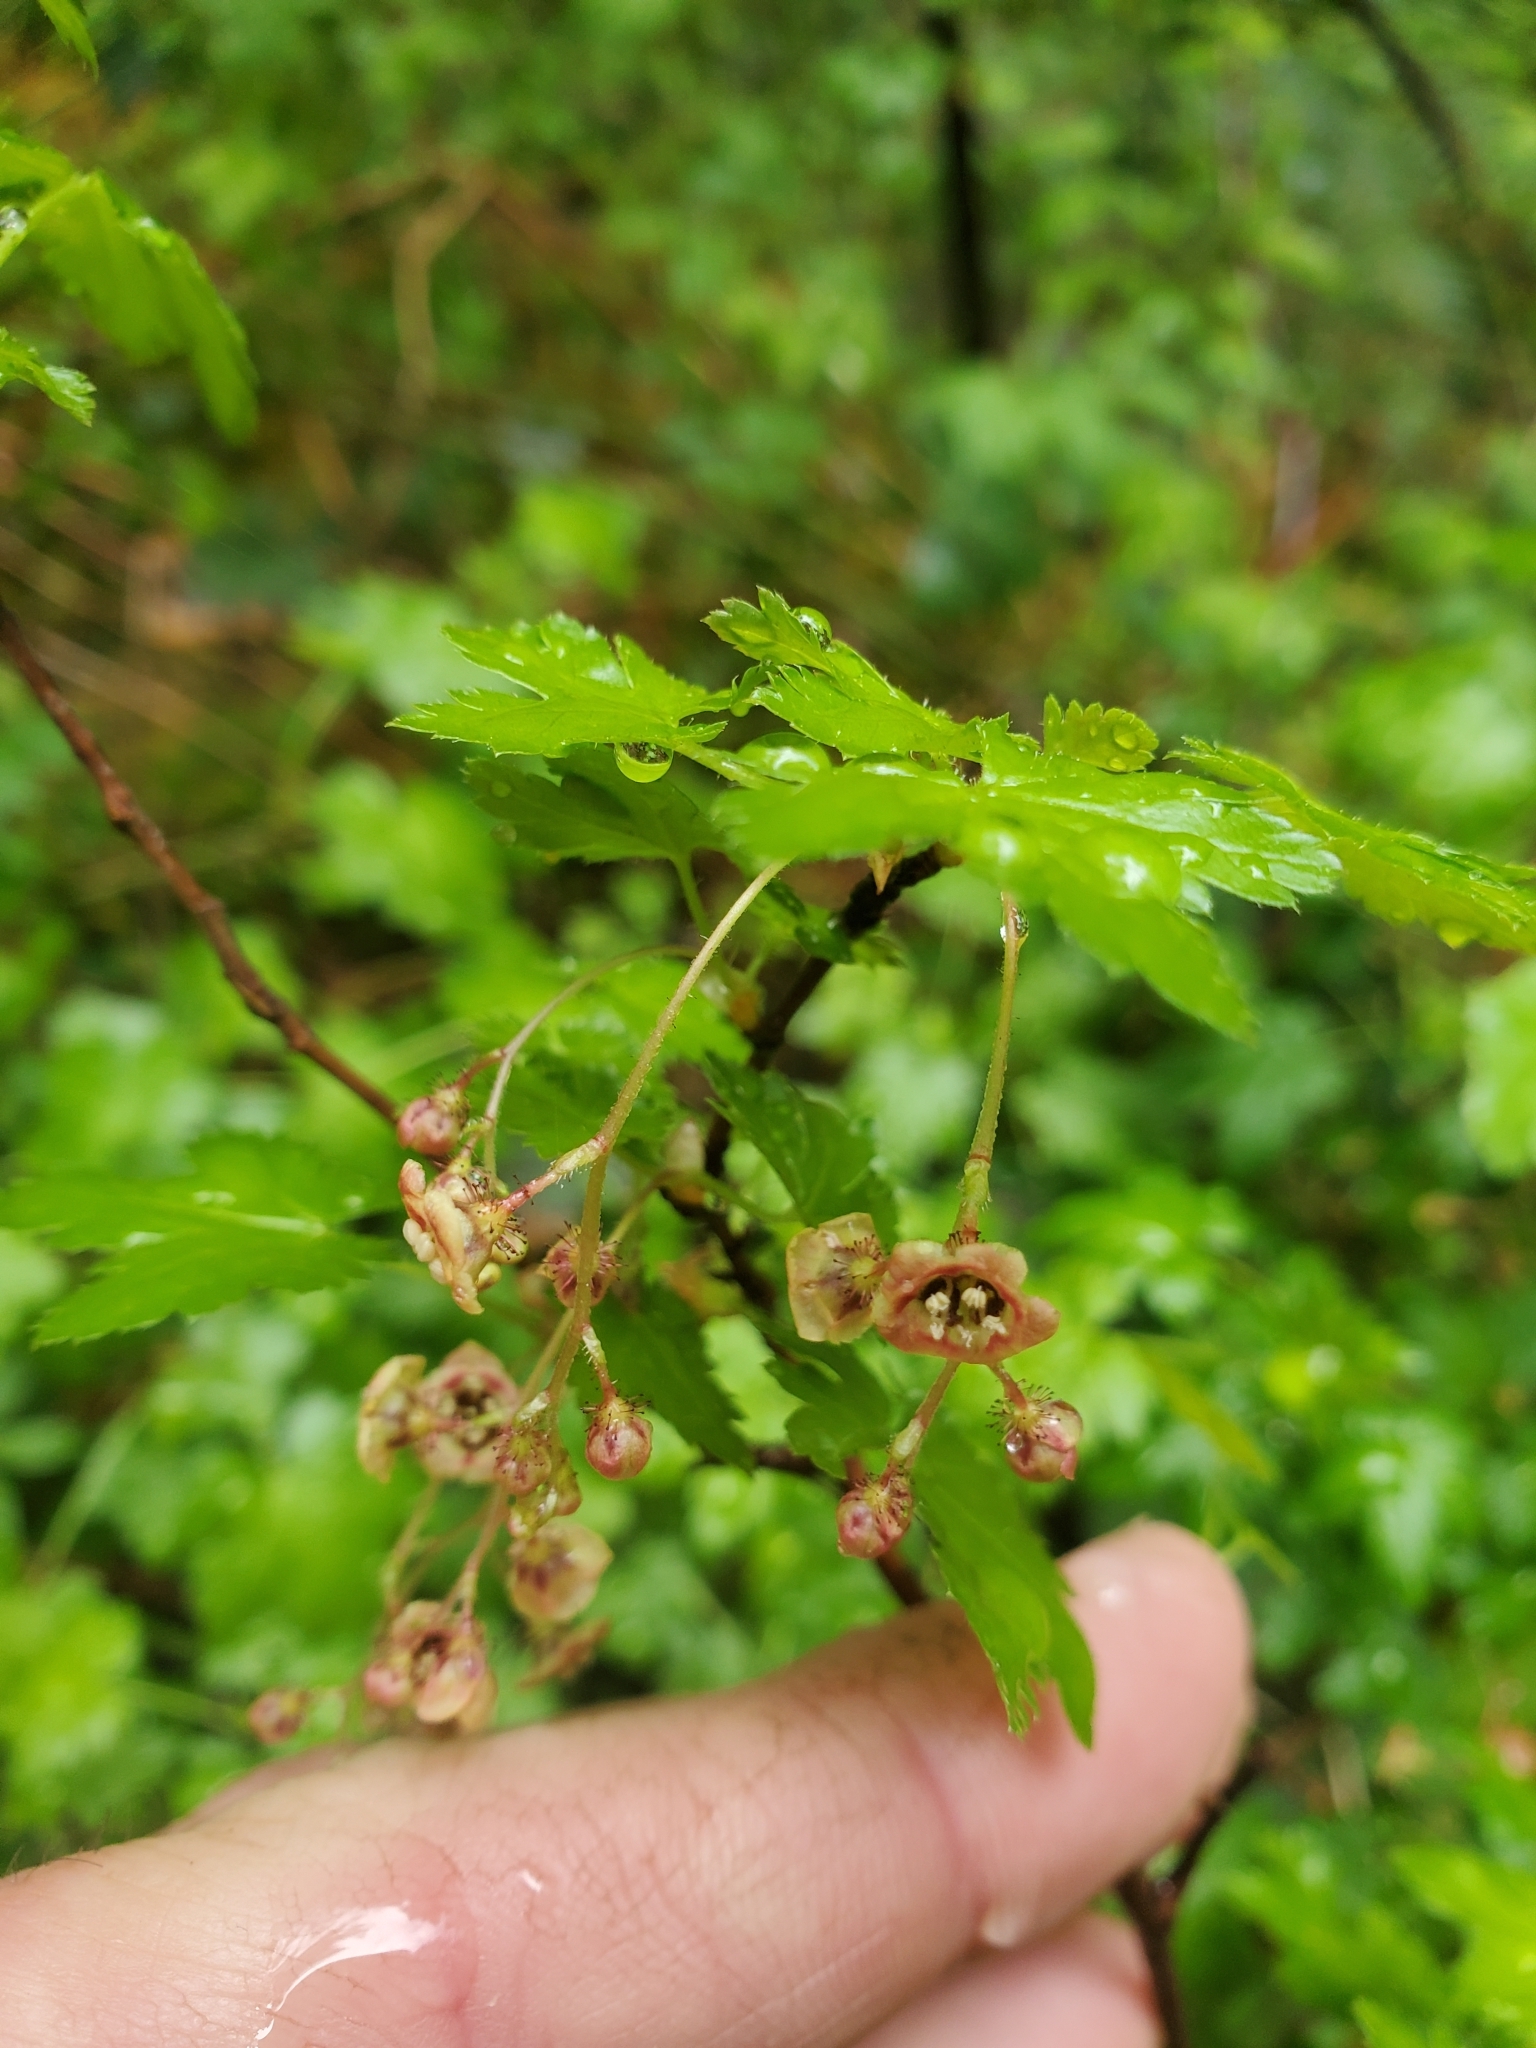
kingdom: Plantae
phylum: Tracheophyta
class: Magnoliopsida
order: Saxifragales
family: Grossulariaceae
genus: Ribes
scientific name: Ribes lacustre
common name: Black gooseberry
